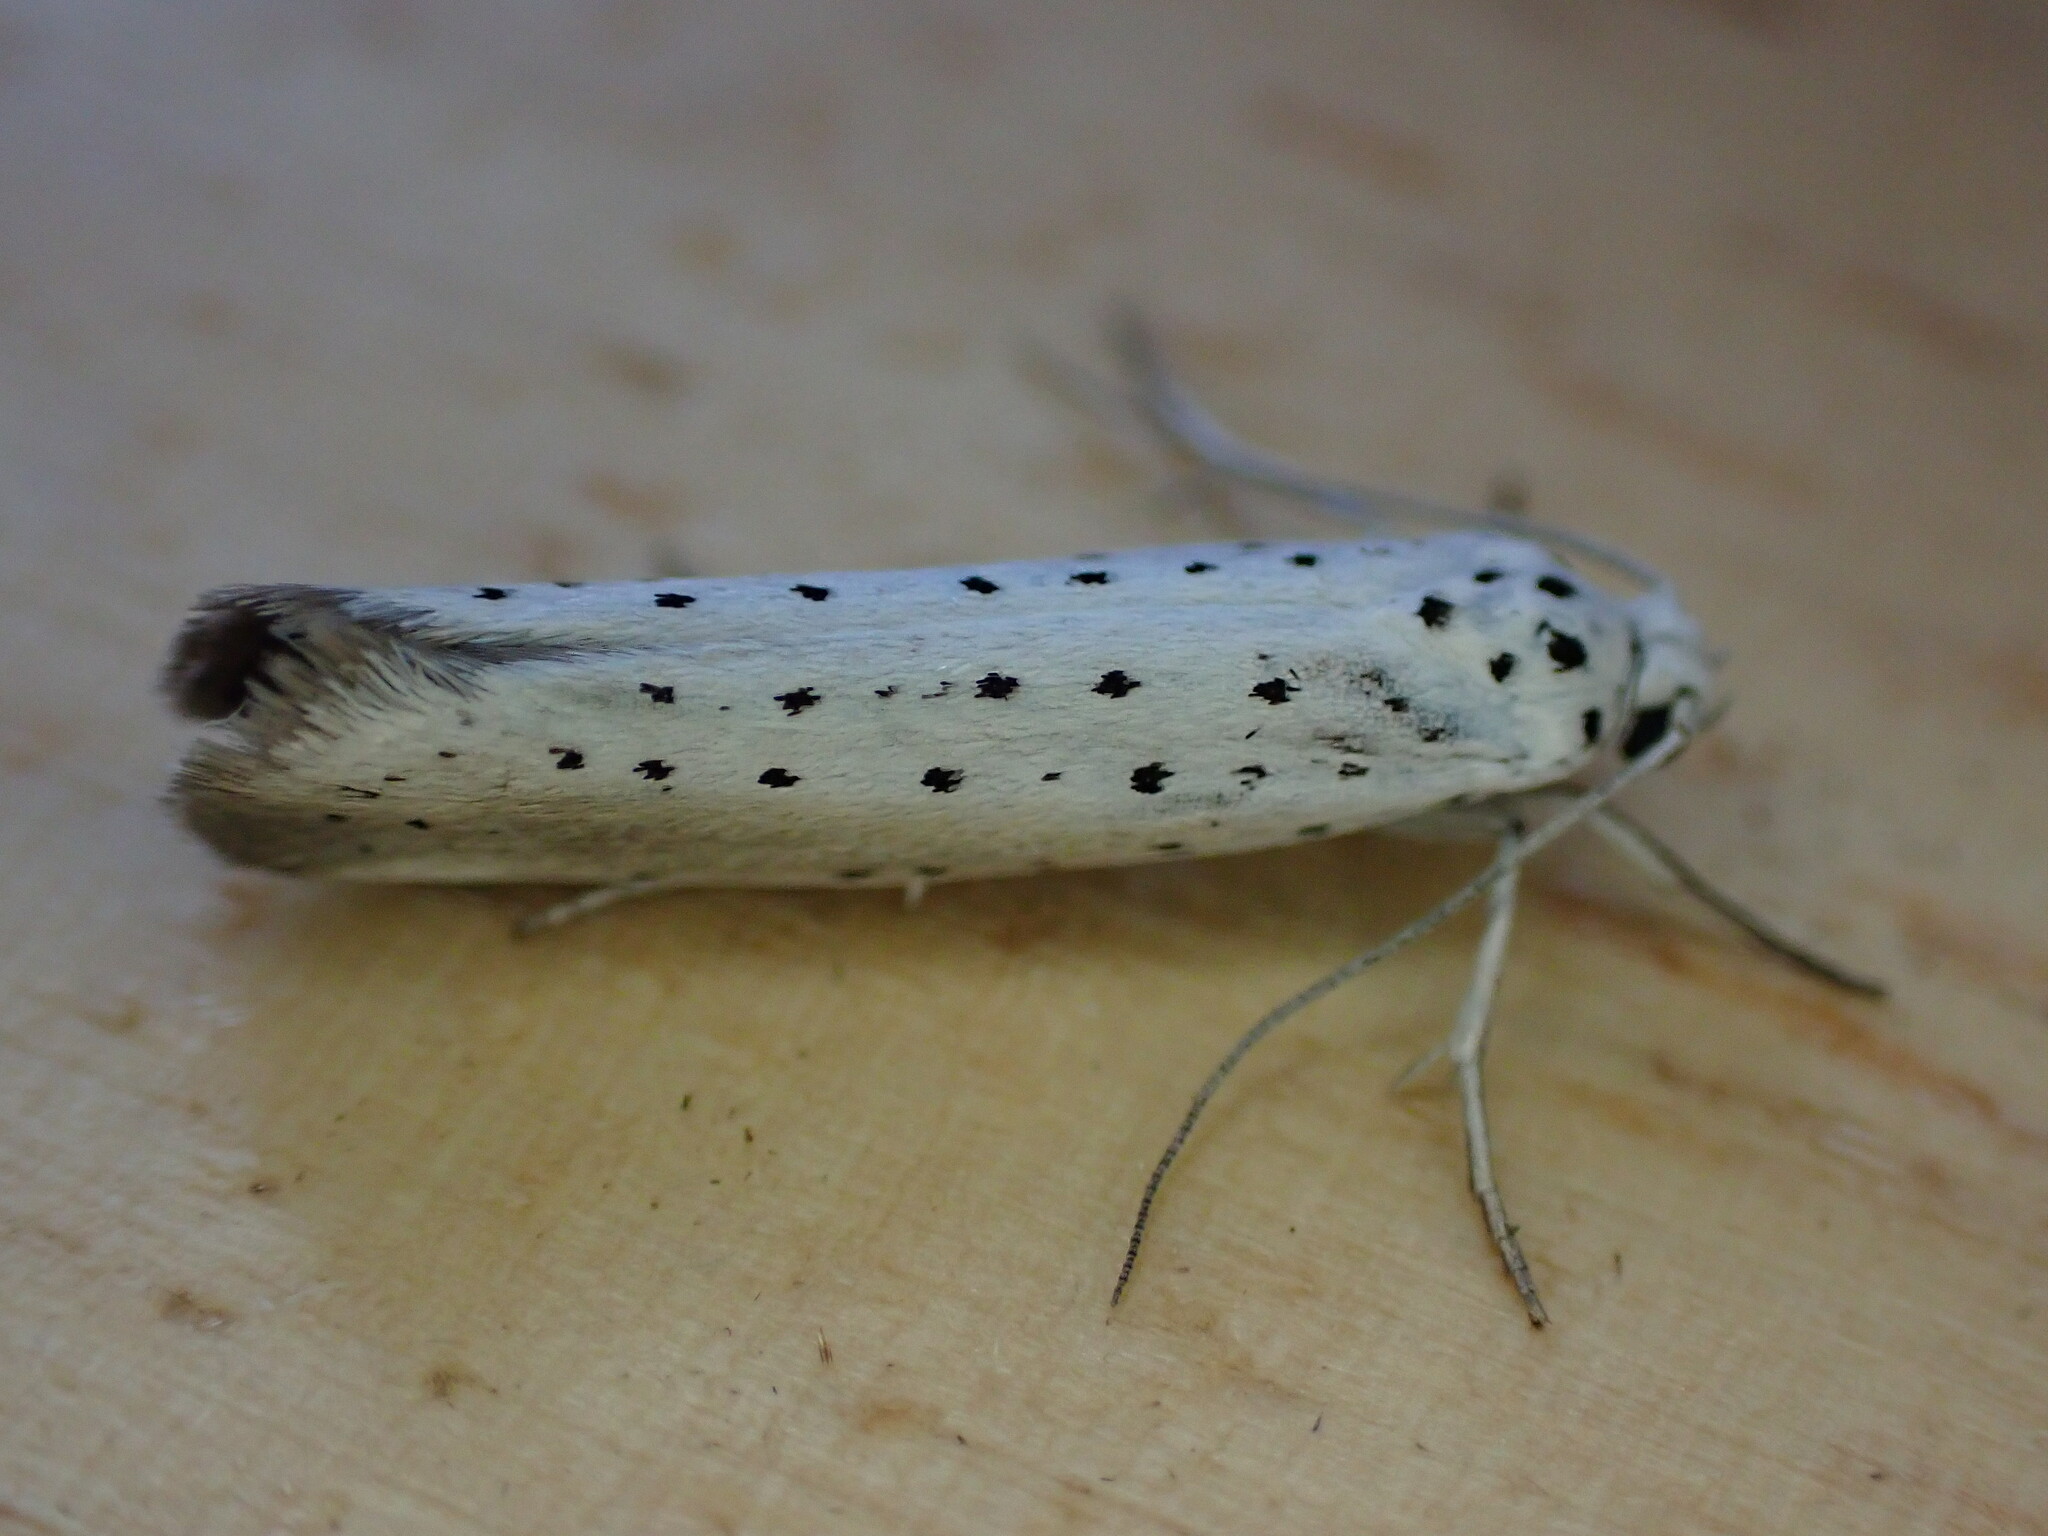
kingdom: Animalia
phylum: Arthropoda
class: Insecta
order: Lepidoptera
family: Yponomeutidae
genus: Yponomeuta
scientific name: Yponomeuta
